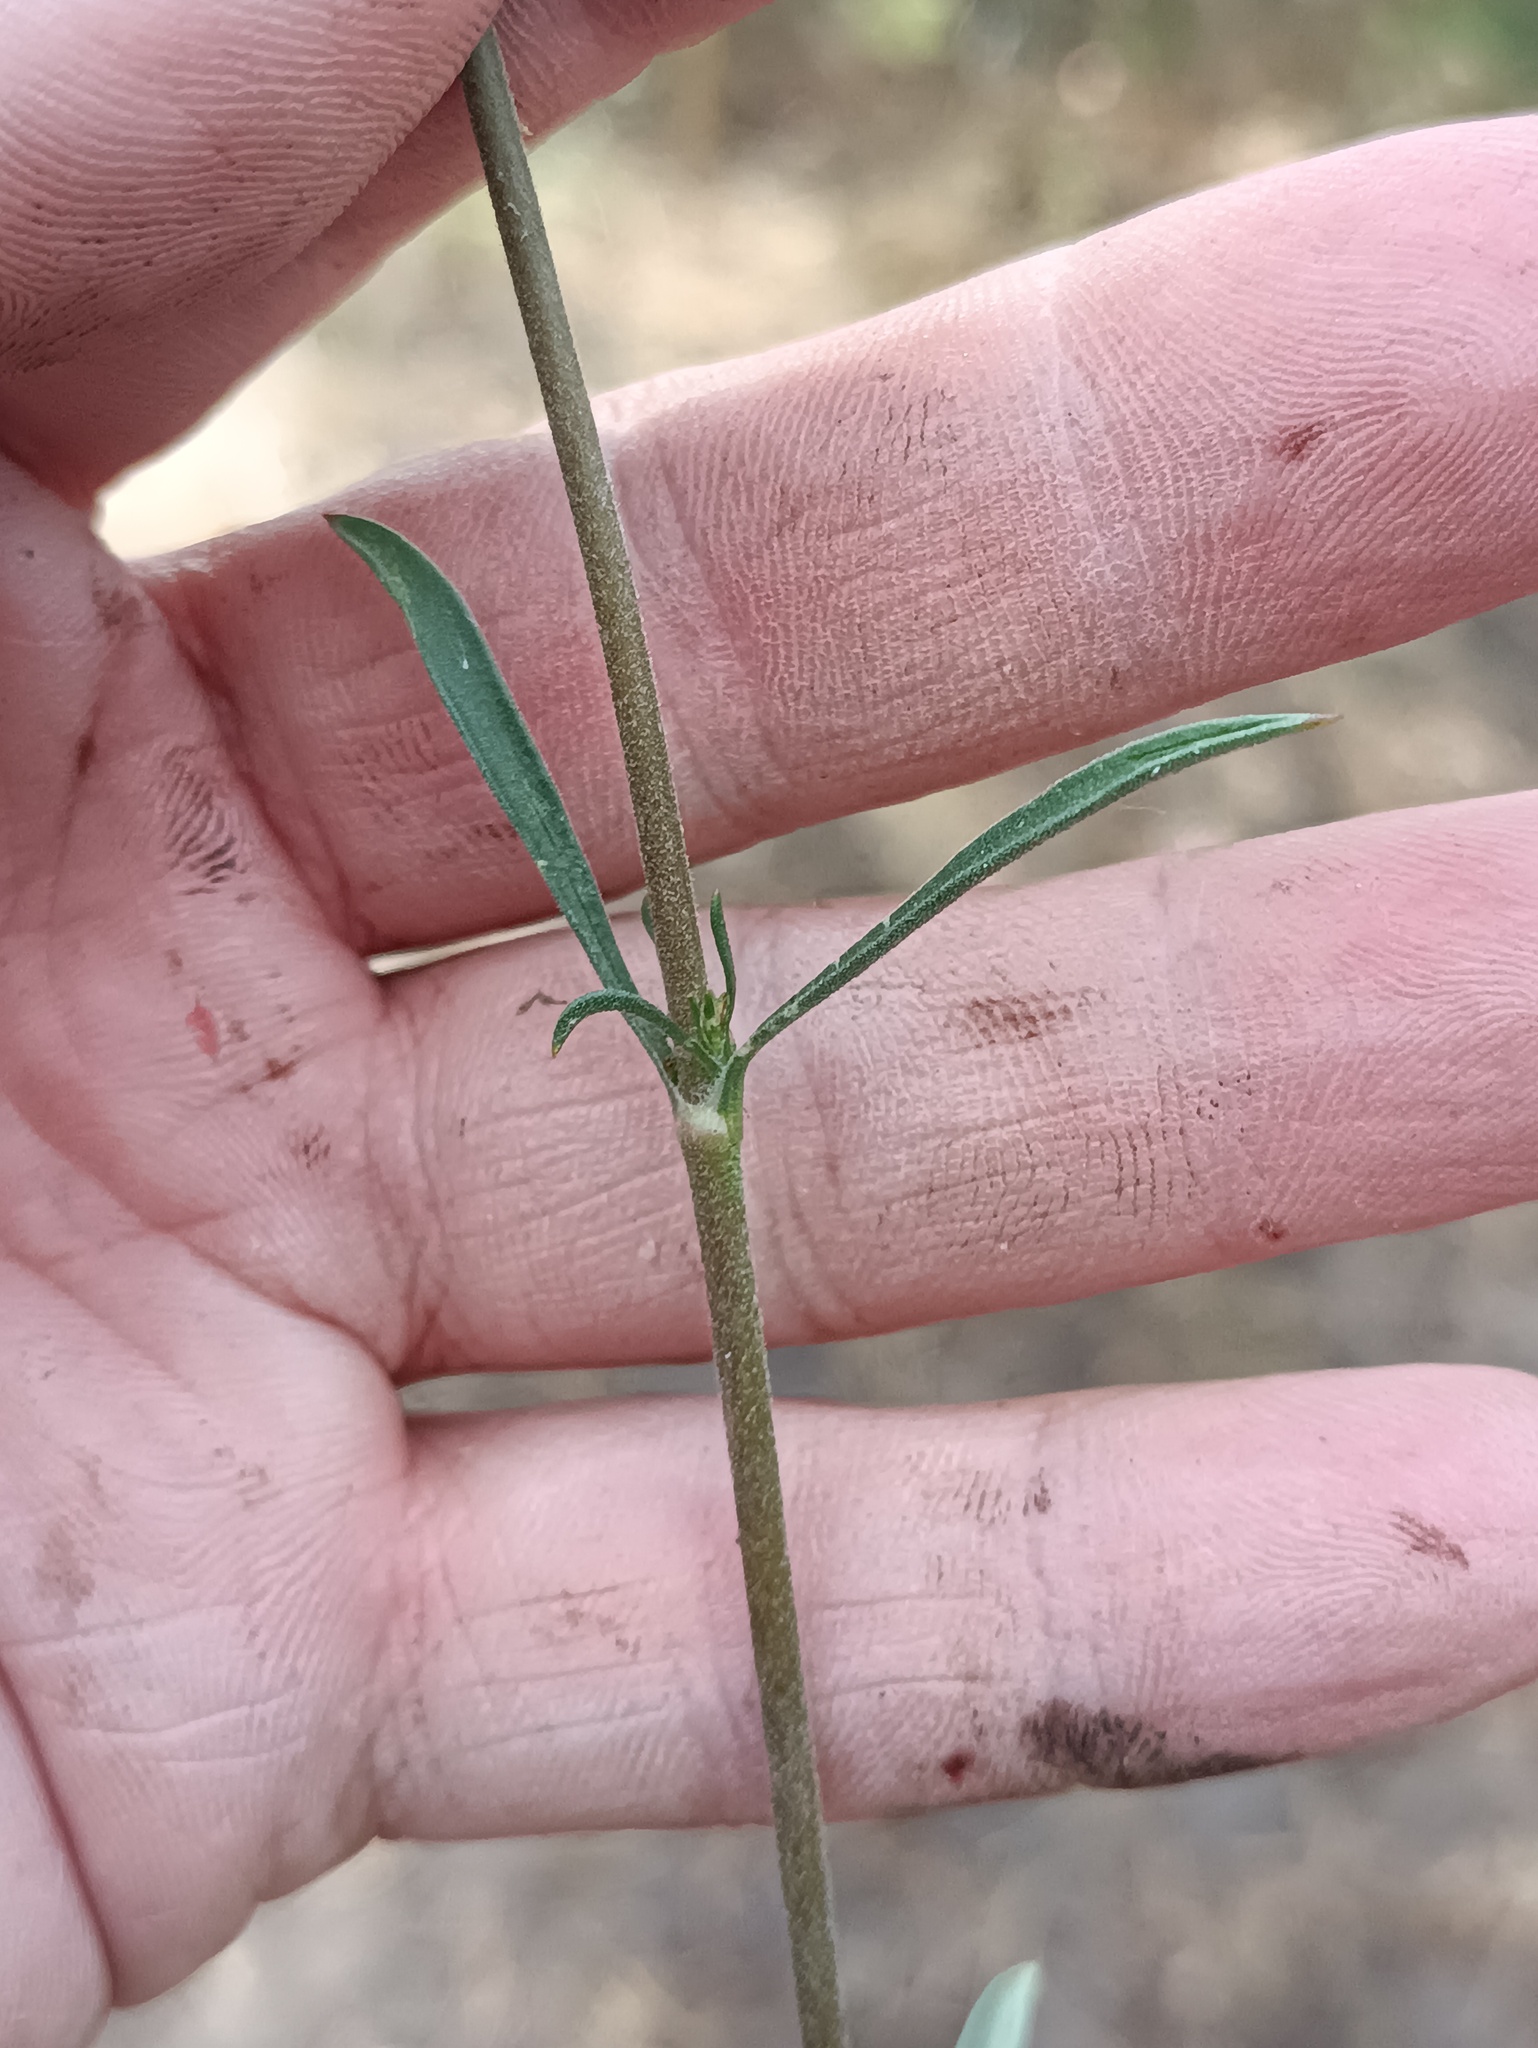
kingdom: Plantae
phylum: Tracheophyta
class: Magnoliopsida
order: Caryophyllales
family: Caryophyllaceae
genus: Silene
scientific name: Silene borysthenica
